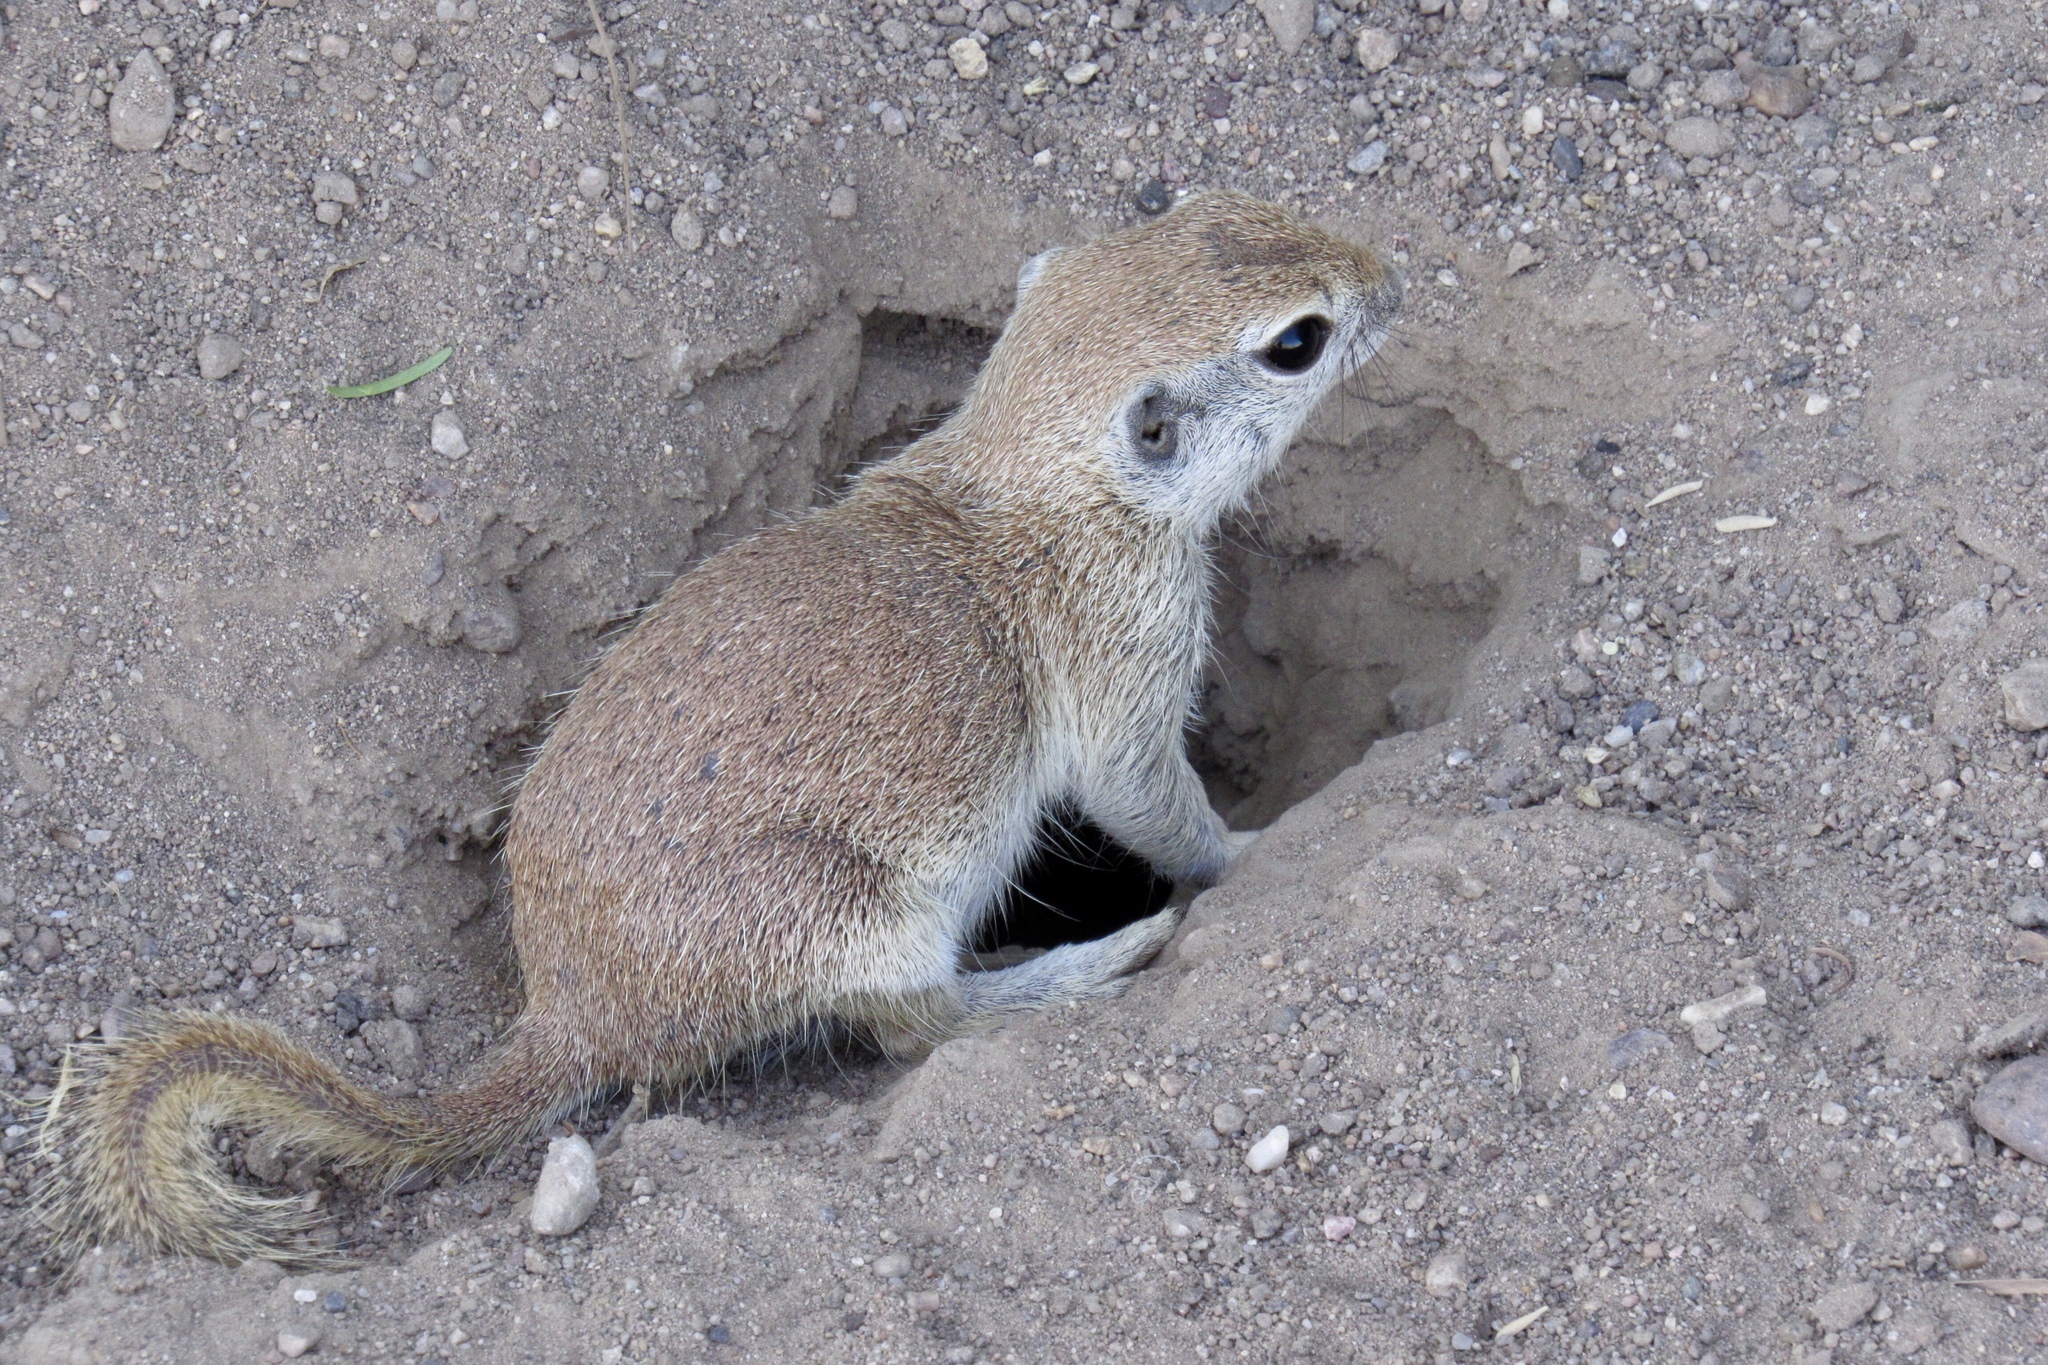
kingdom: Animalia
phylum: Chordata
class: Mammalia
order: Rodentia
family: Sciuridae
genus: Xerospermophilus
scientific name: Xerospermophilus tereticaudus
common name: Round-tailed ground squirrel
